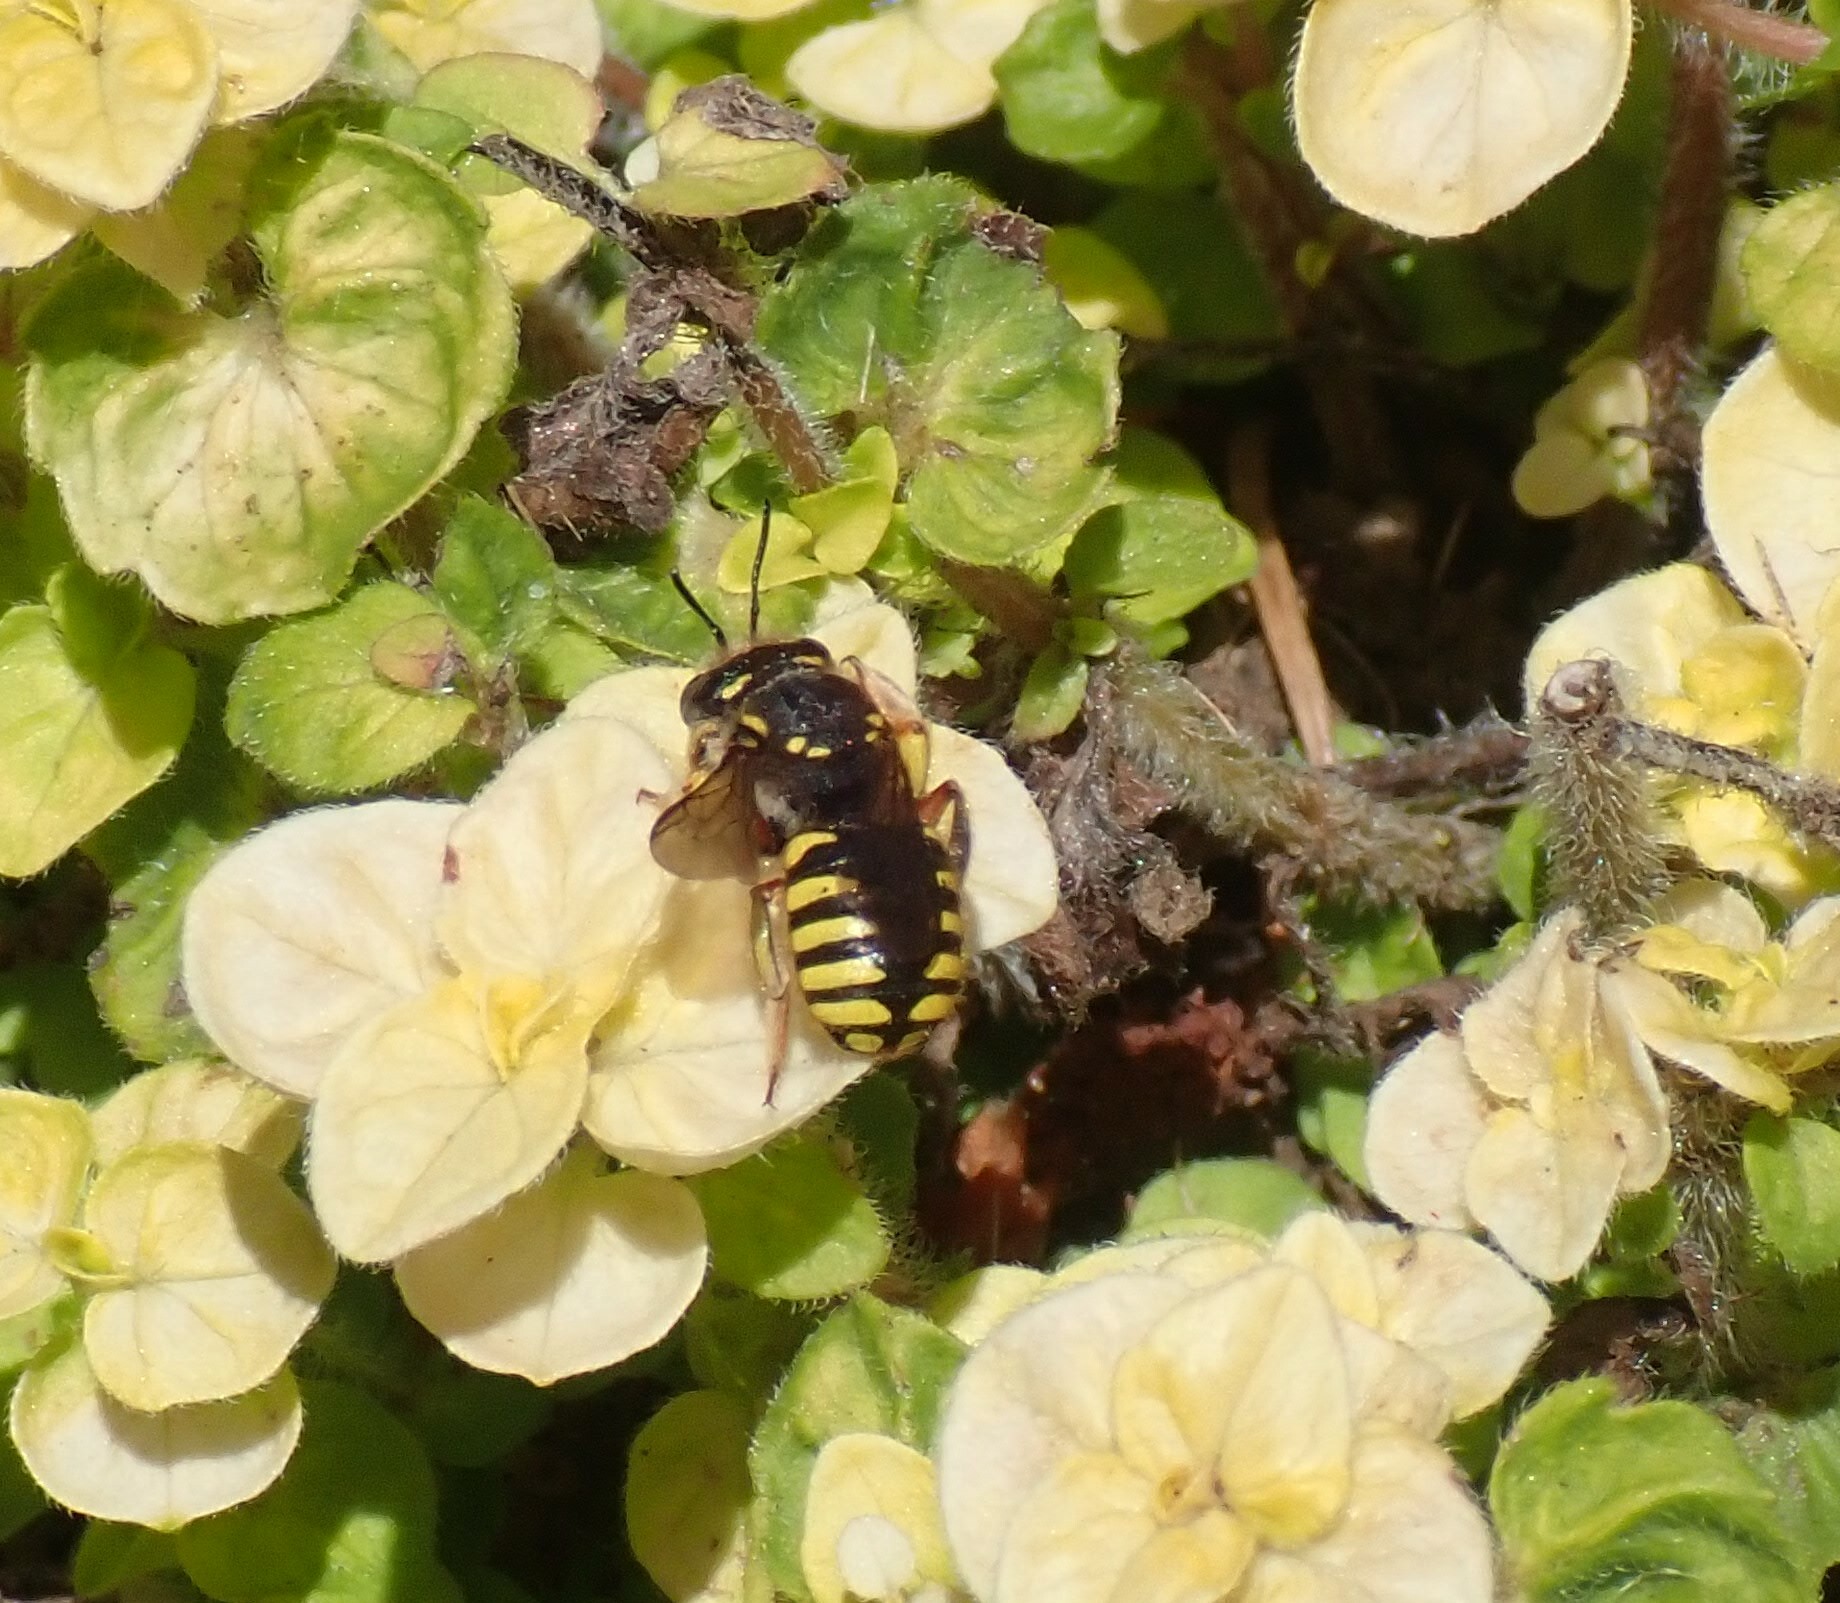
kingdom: Animalia
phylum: Arthropoda
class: Insecta
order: Hymenoptera
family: Megachilidae
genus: Anthidium
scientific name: Anthidium manicatum
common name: Wool carder bee
